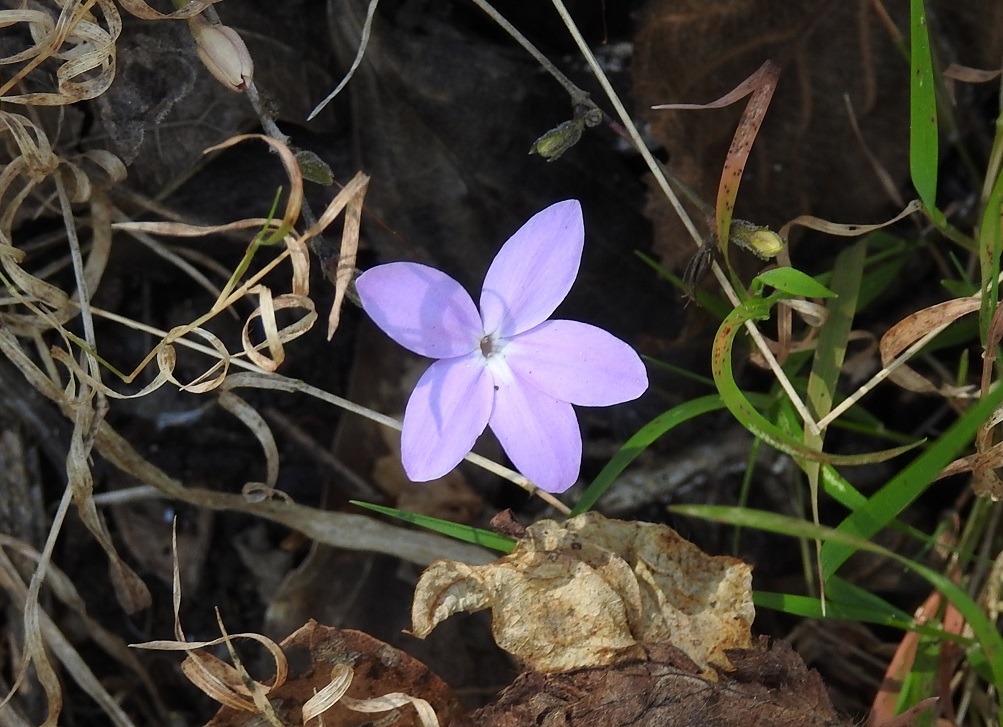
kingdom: Plantae
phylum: Tracheophyta
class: Magnoliopsida
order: Lamiales
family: Acanthaceae
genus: Pseuderanthemum
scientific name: Pseuderanthemum praecox
